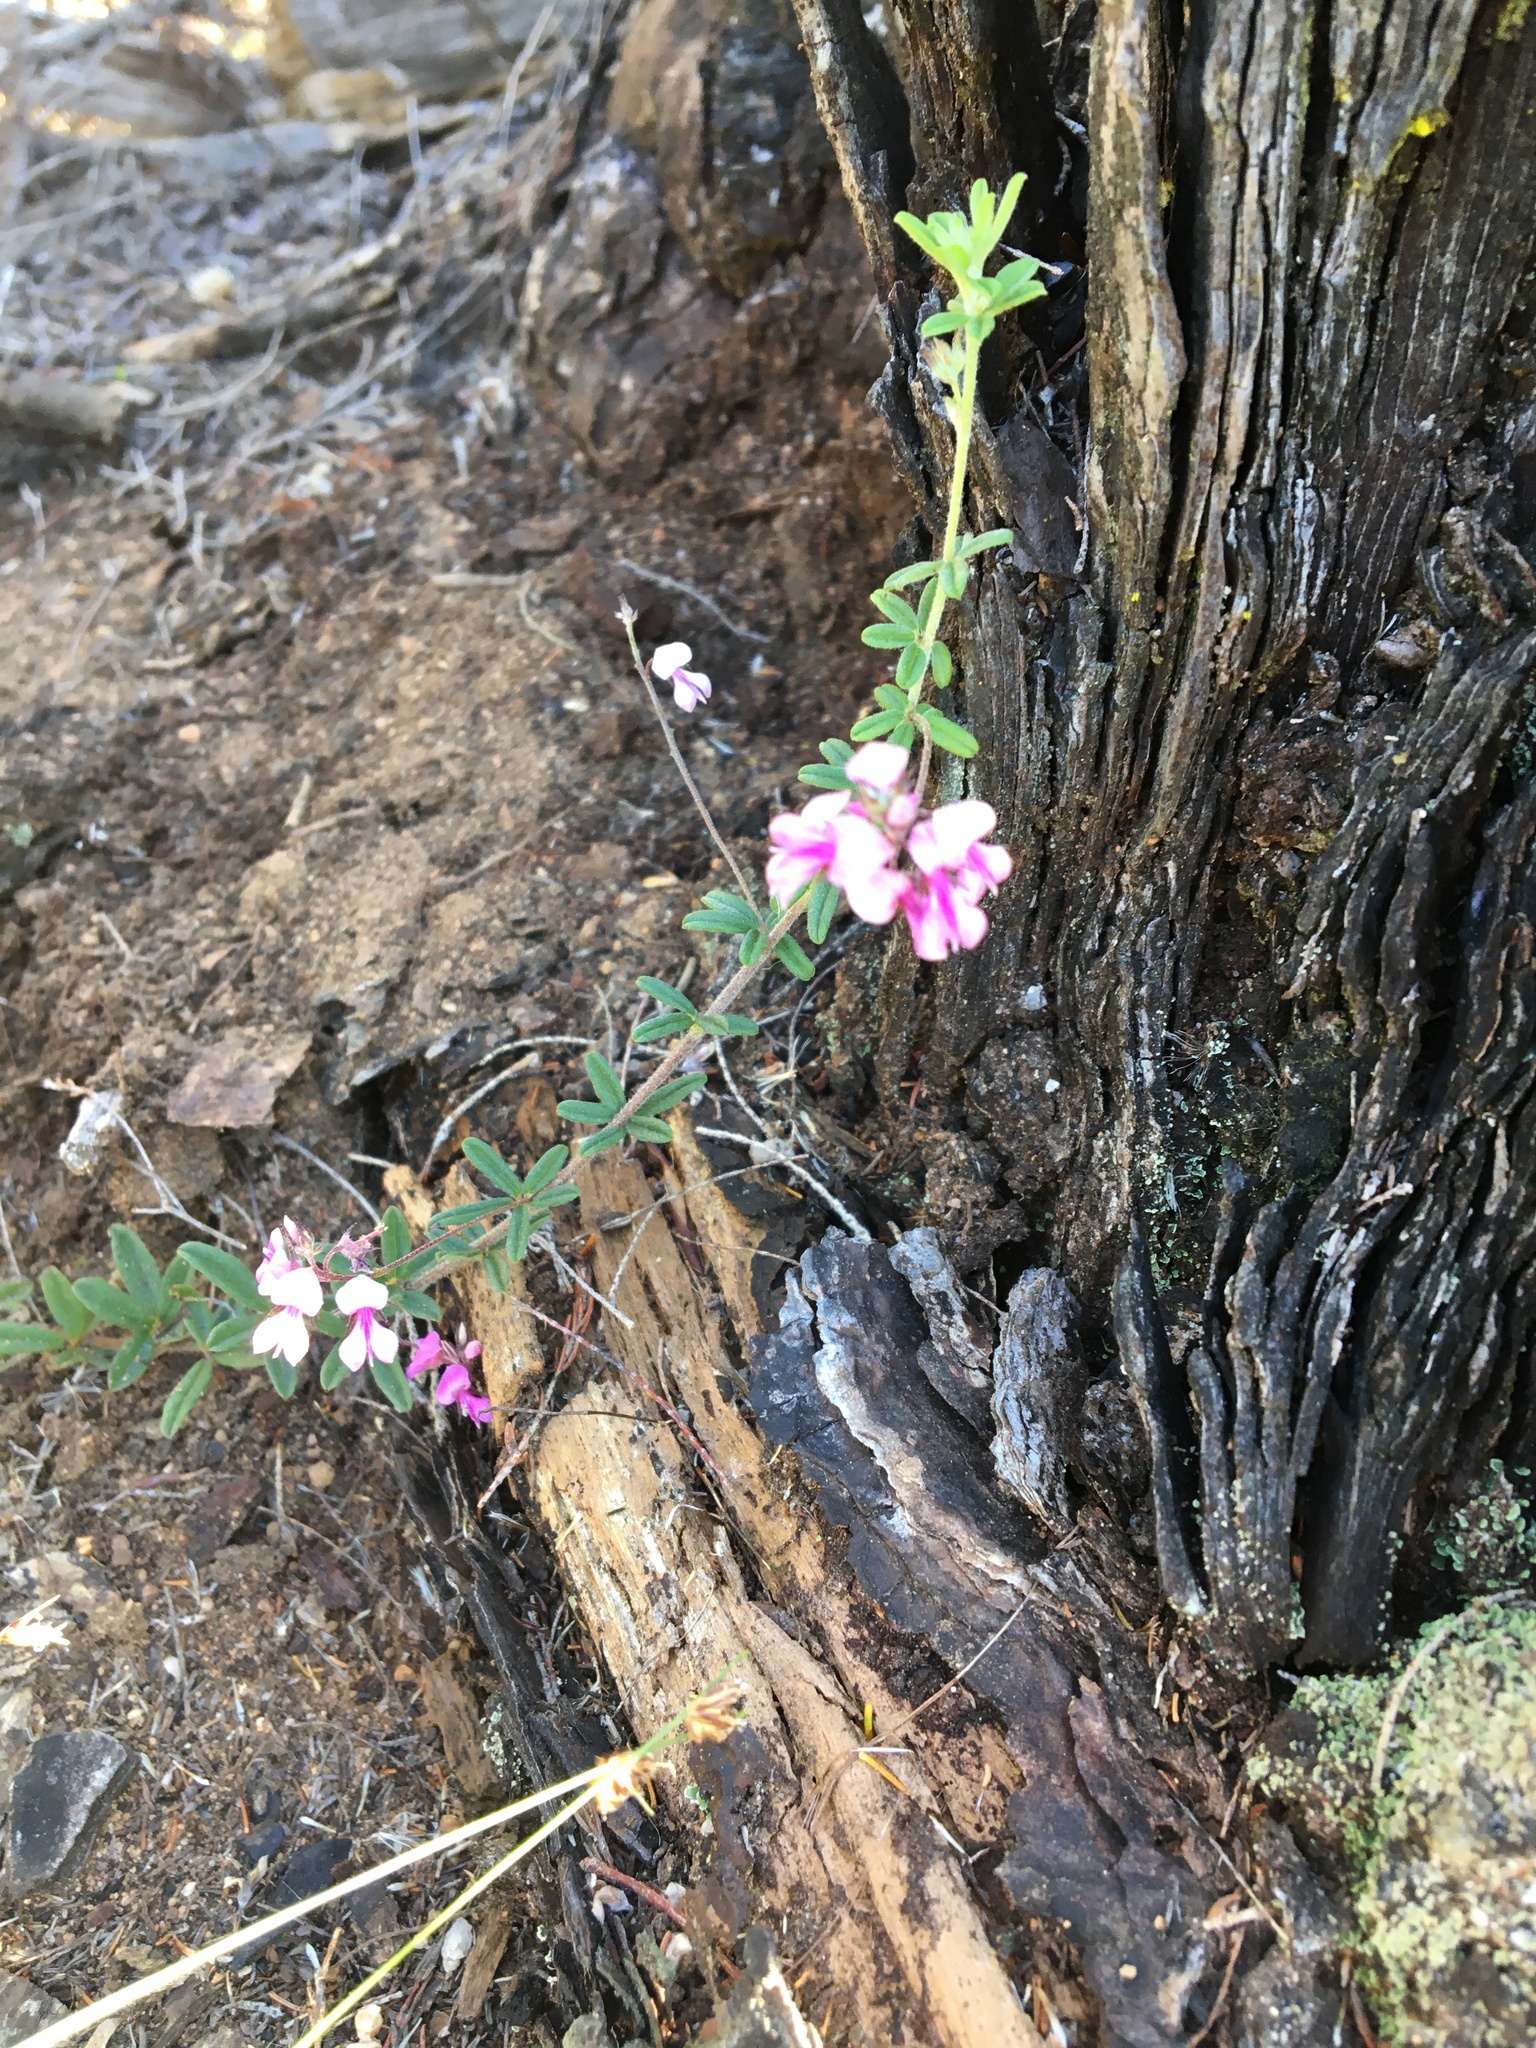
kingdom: Plantae
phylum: Tracheophyta
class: Magnoliopsida
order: Fabales
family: Fabaceae
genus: Indigofera
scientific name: Indigofera filiformis
